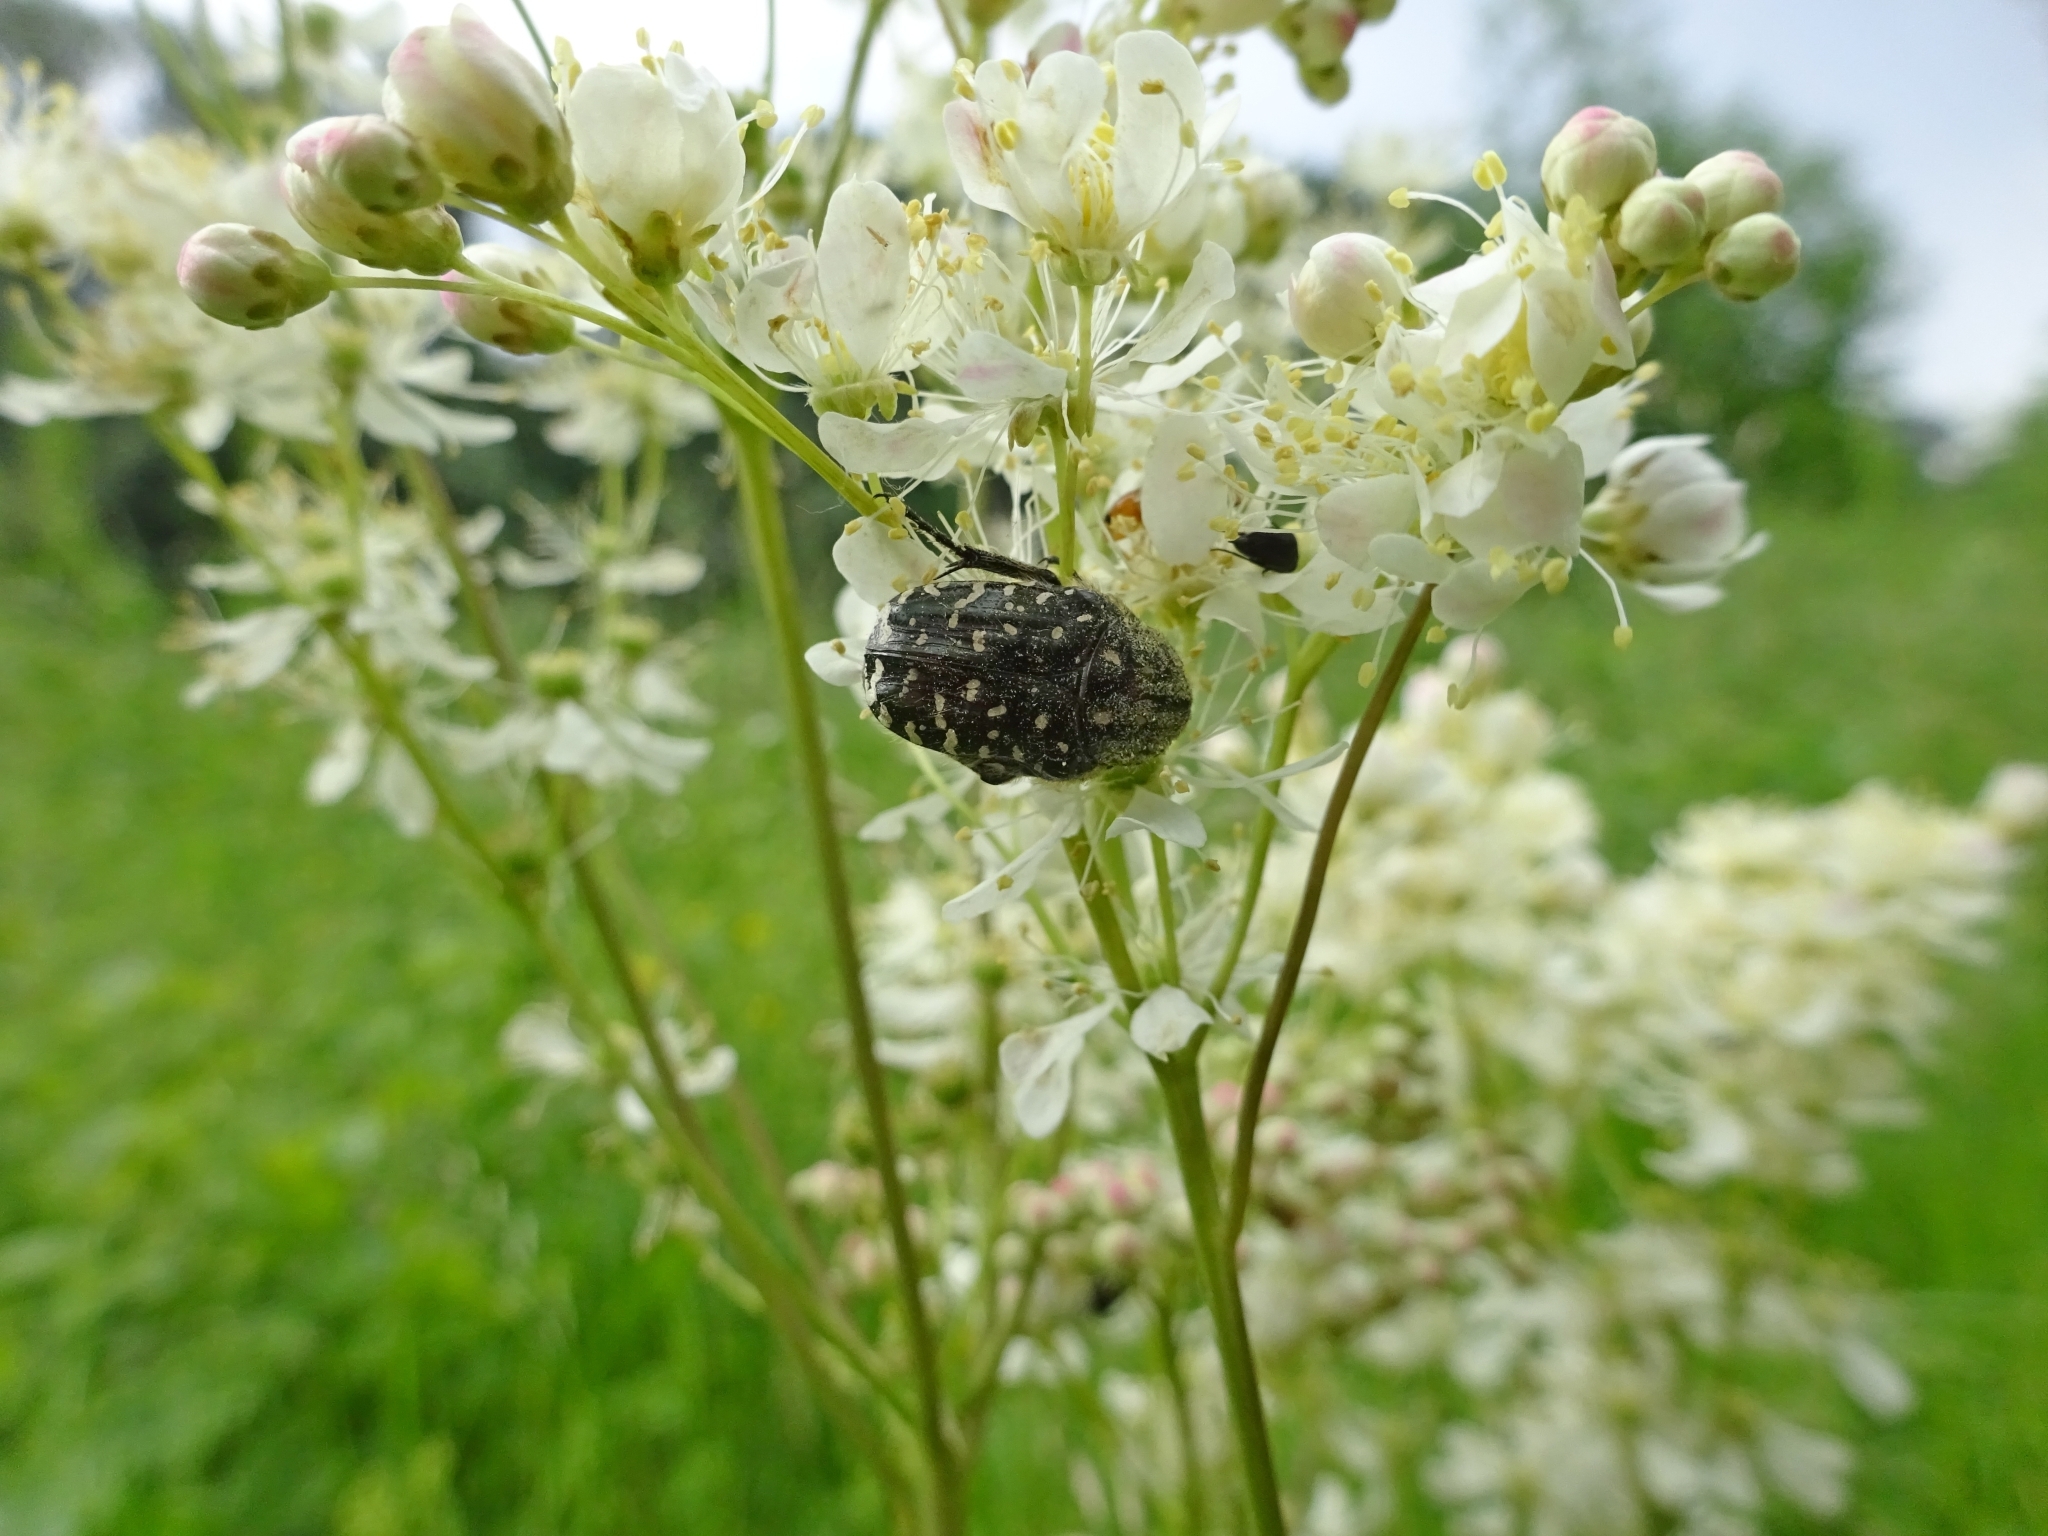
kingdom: Animalia
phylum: Arthropoda
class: Insecta
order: Coleoptera
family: Scarabaeidae
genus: Oxythyrea
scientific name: Oxythyrea funesta
